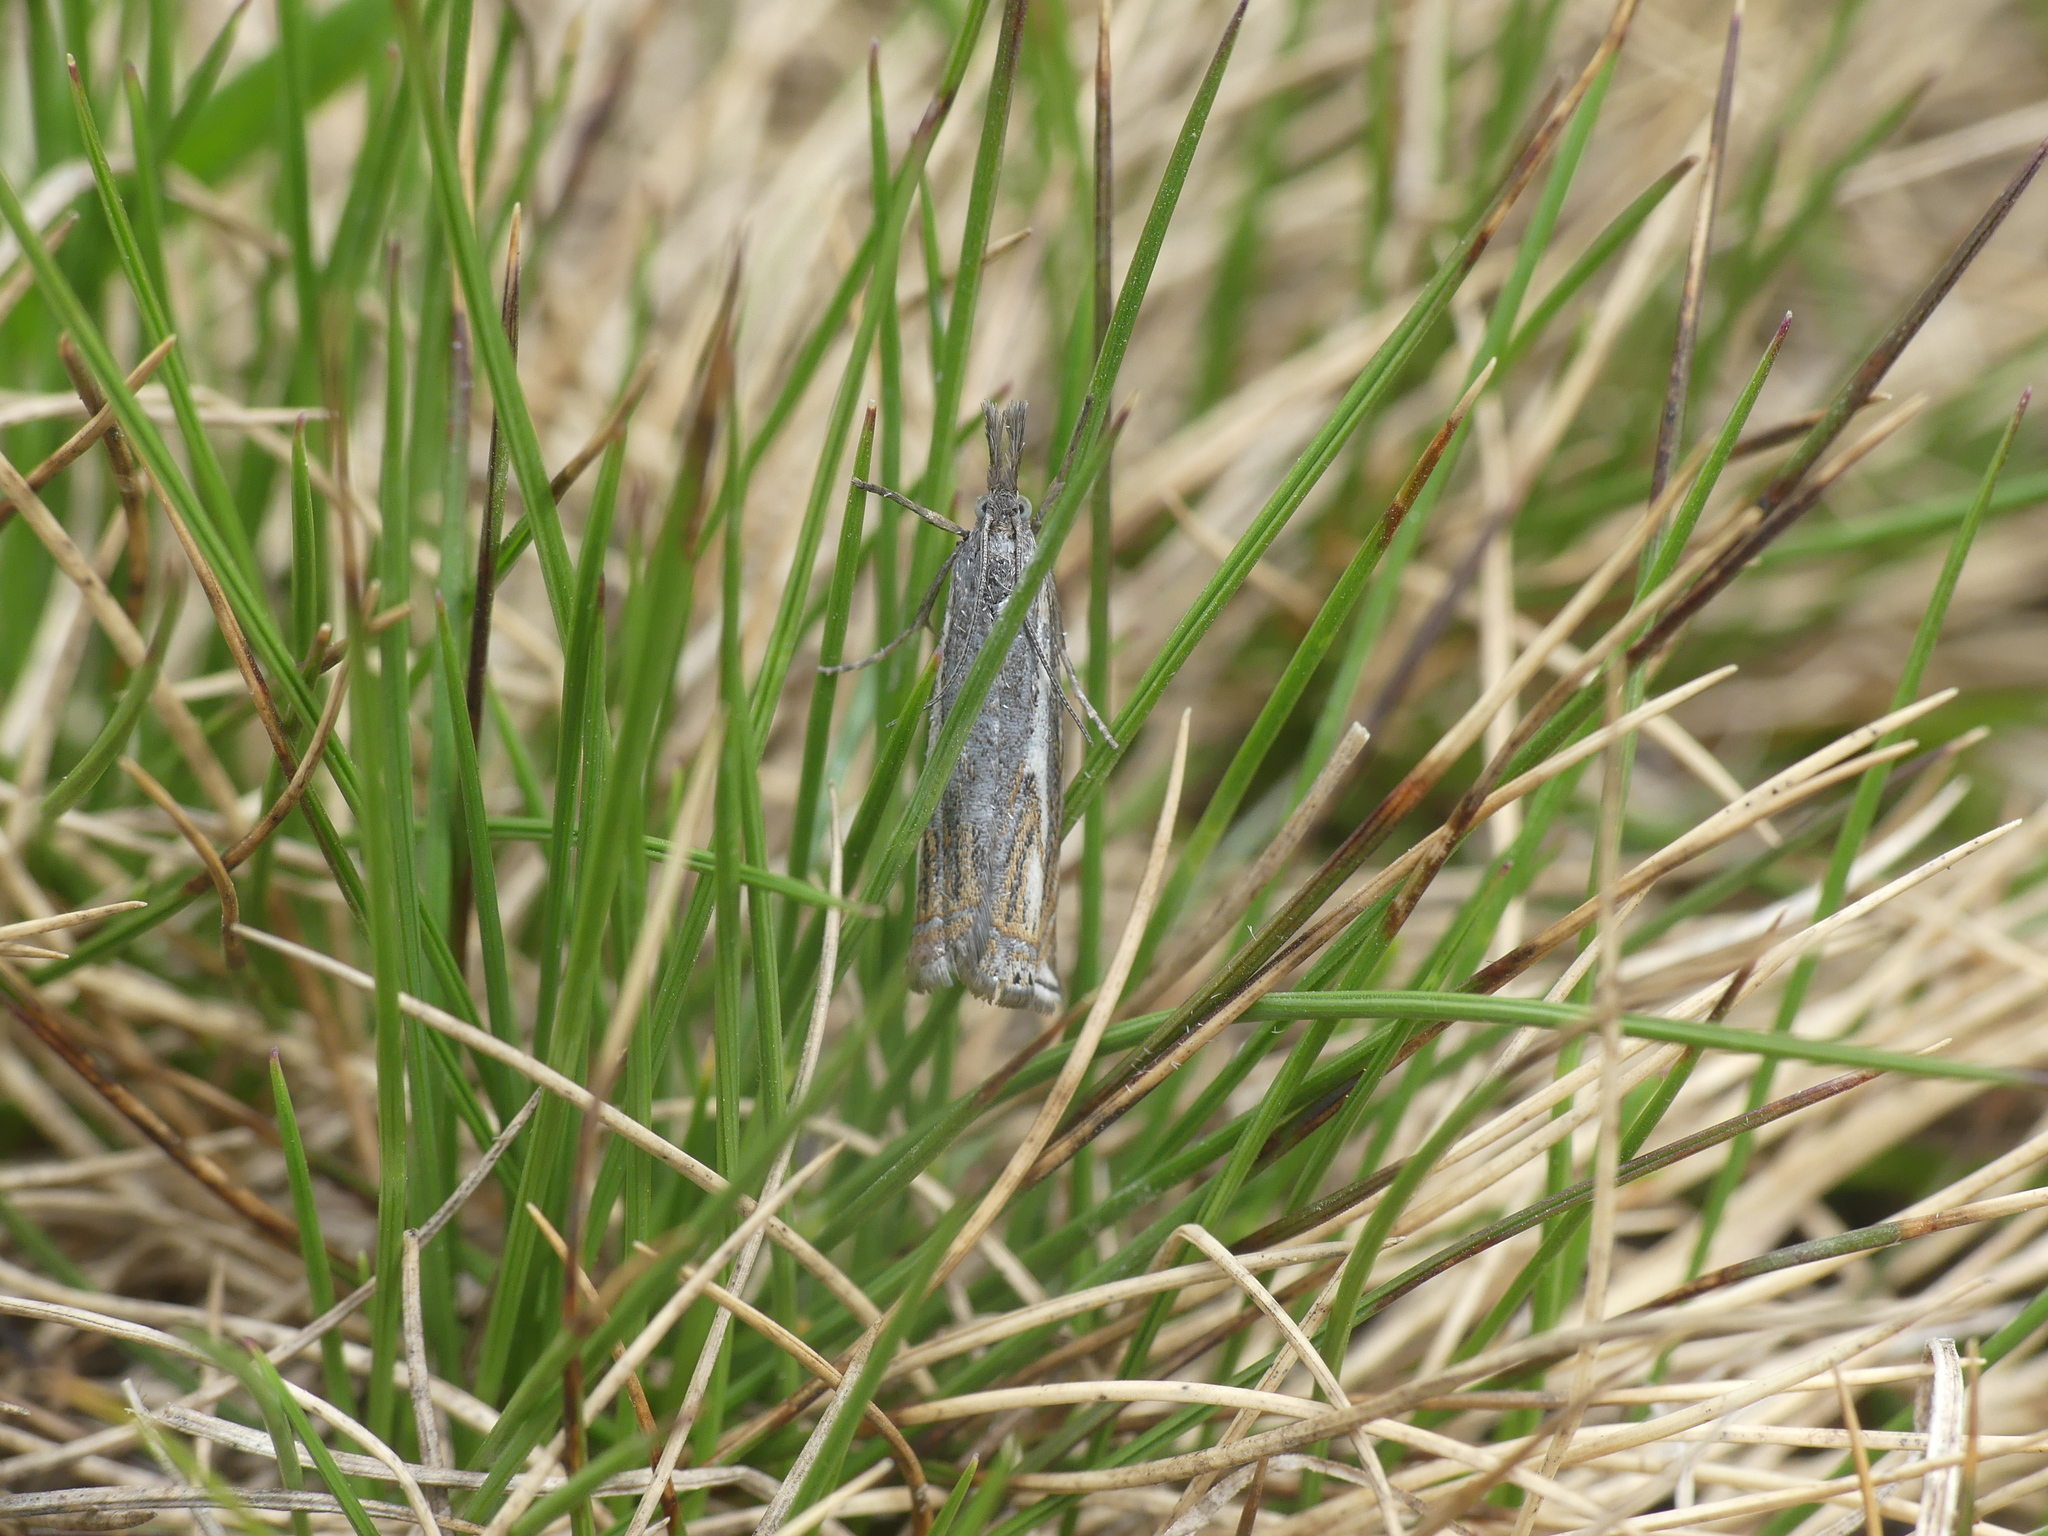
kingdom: Animalia
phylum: Arthropoda
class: Insecta
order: Lepidoptera
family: Crambidae
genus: Crambus
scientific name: Crambus nemorella
